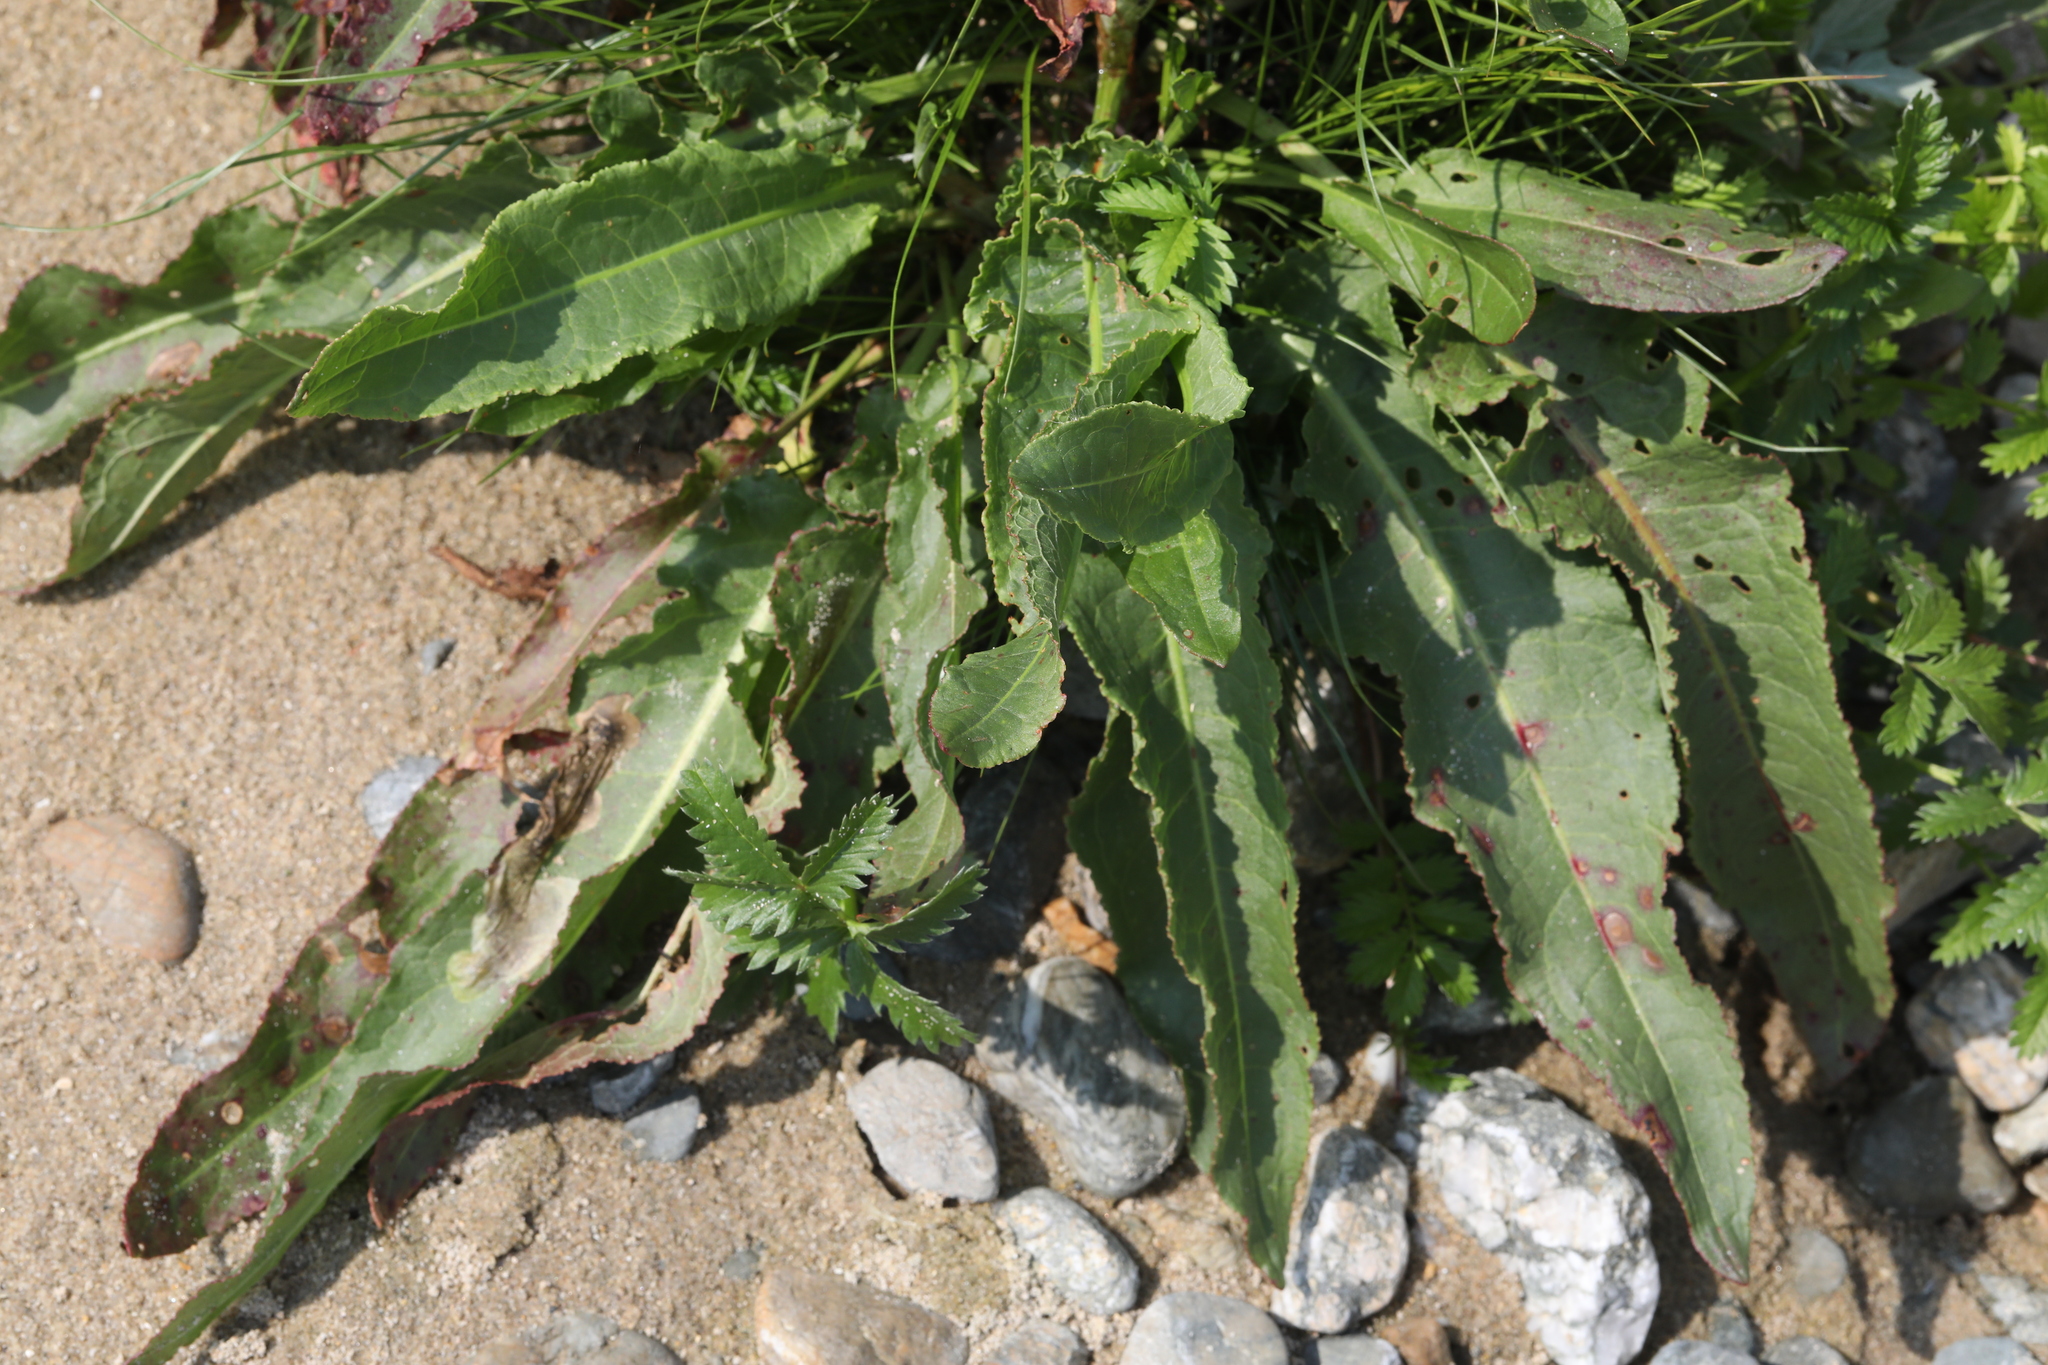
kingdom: Plantae
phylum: Tracheophyta
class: Magnoliopsida
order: Caryophyllales
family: Polygonaceae
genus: Rumex
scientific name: Rumex crispus
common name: Curled dock
